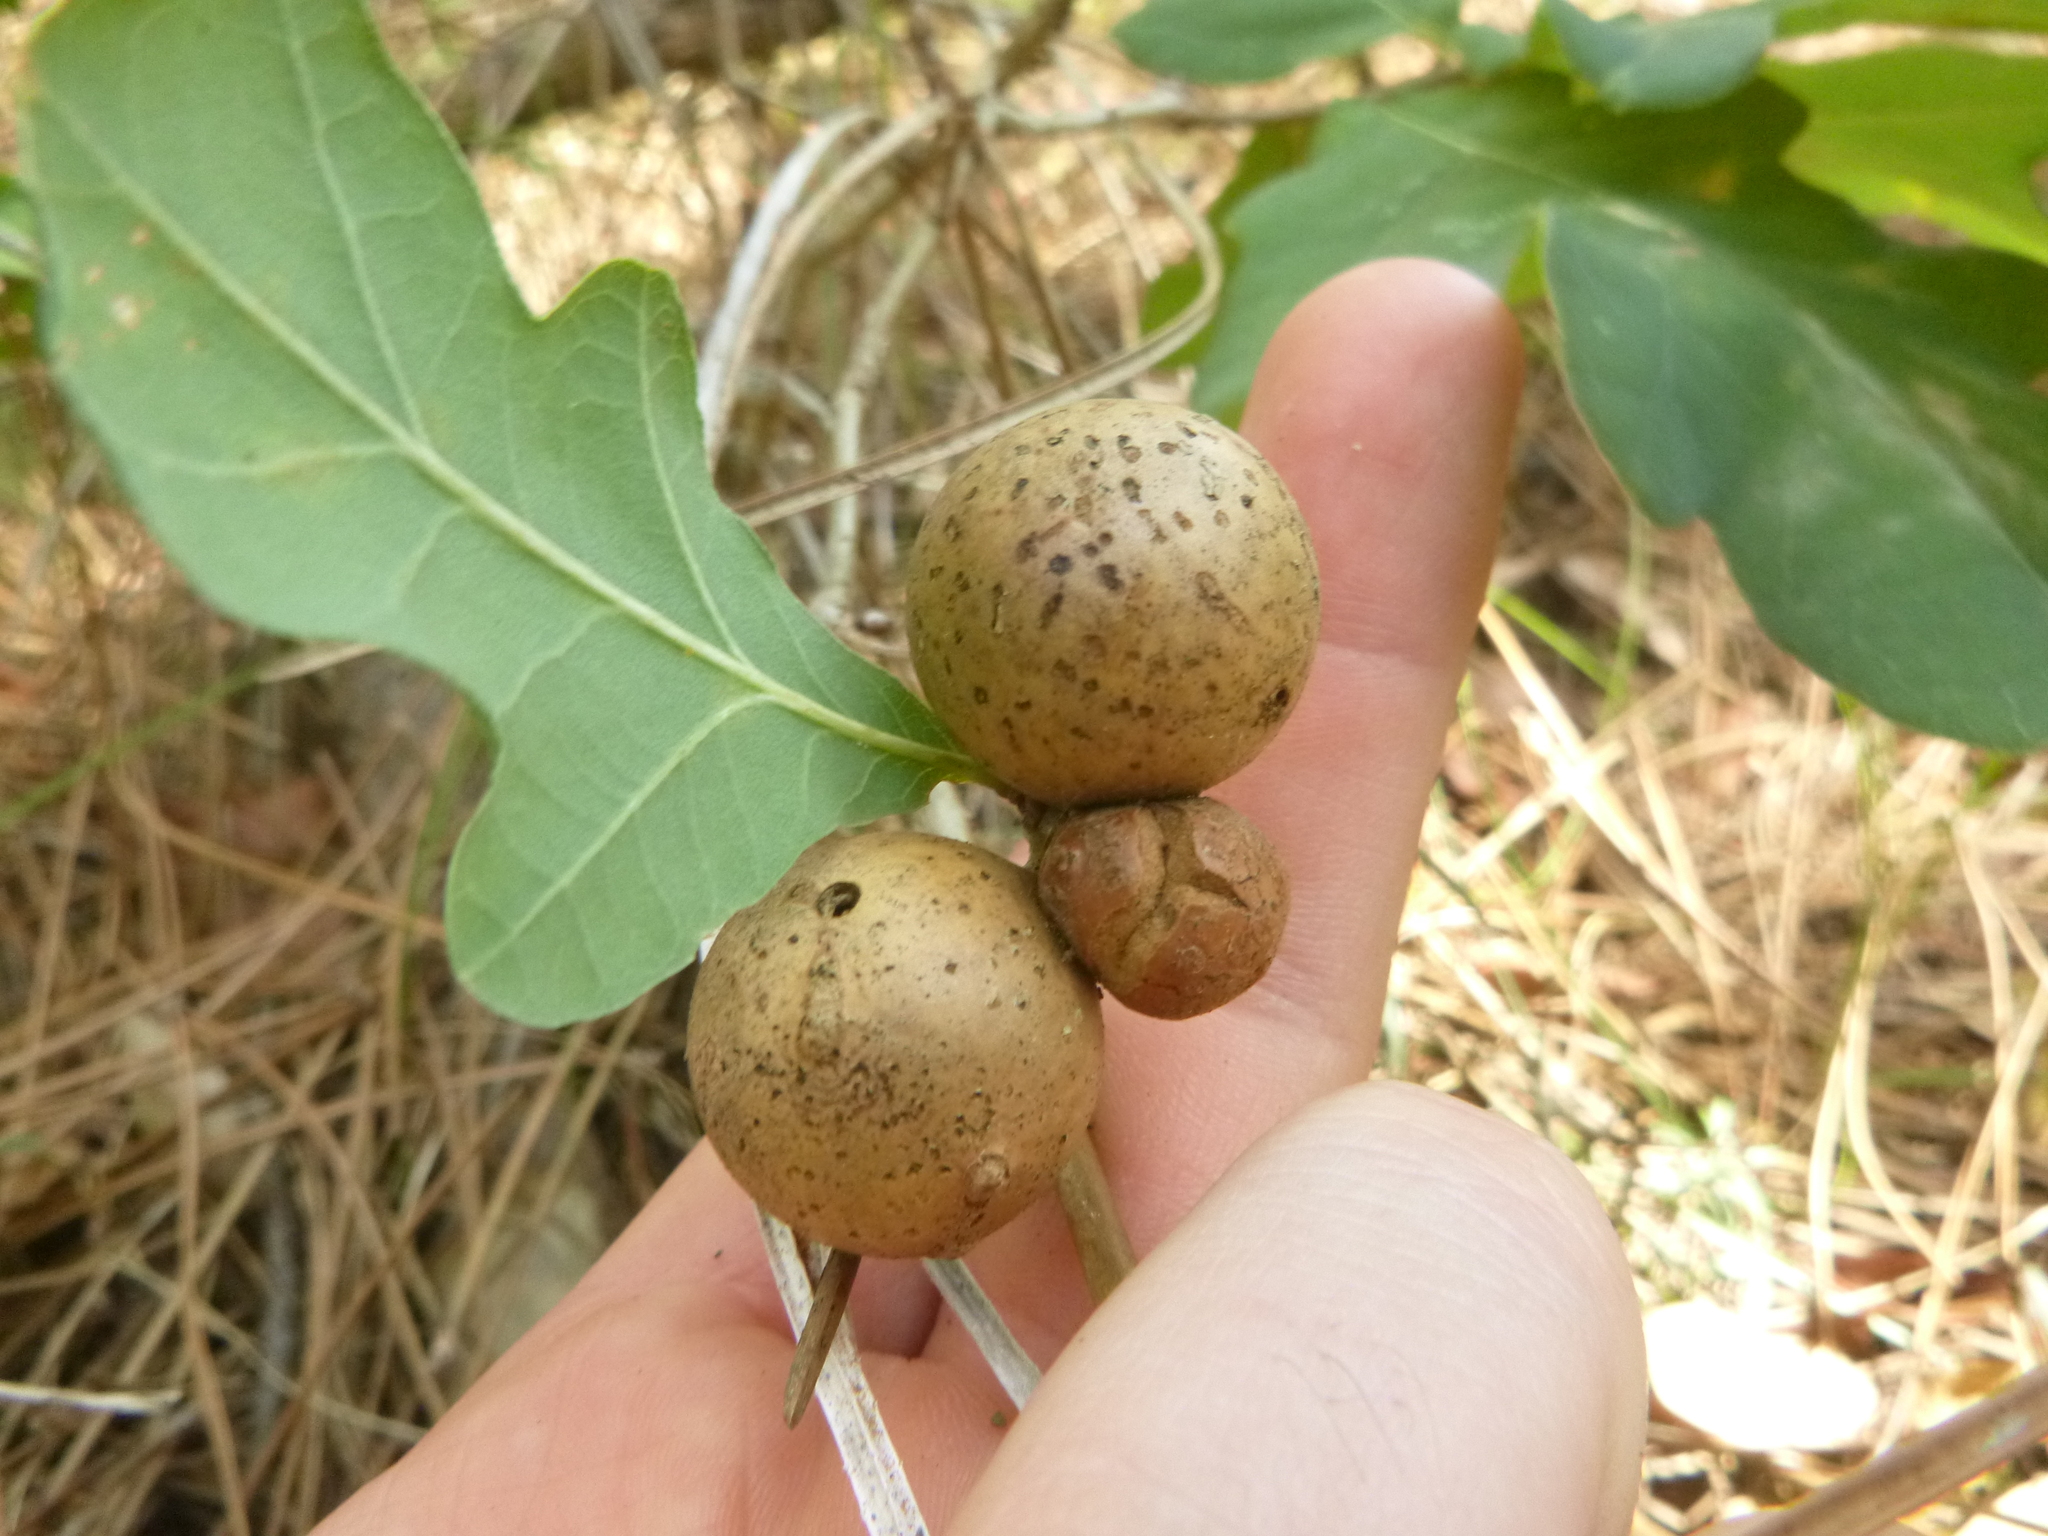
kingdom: Animalia
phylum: Arthropoda
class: Insecta
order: Hymenoptera
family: Cynipidae
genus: Andricus
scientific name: Andricus kollari
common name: Marble gall
